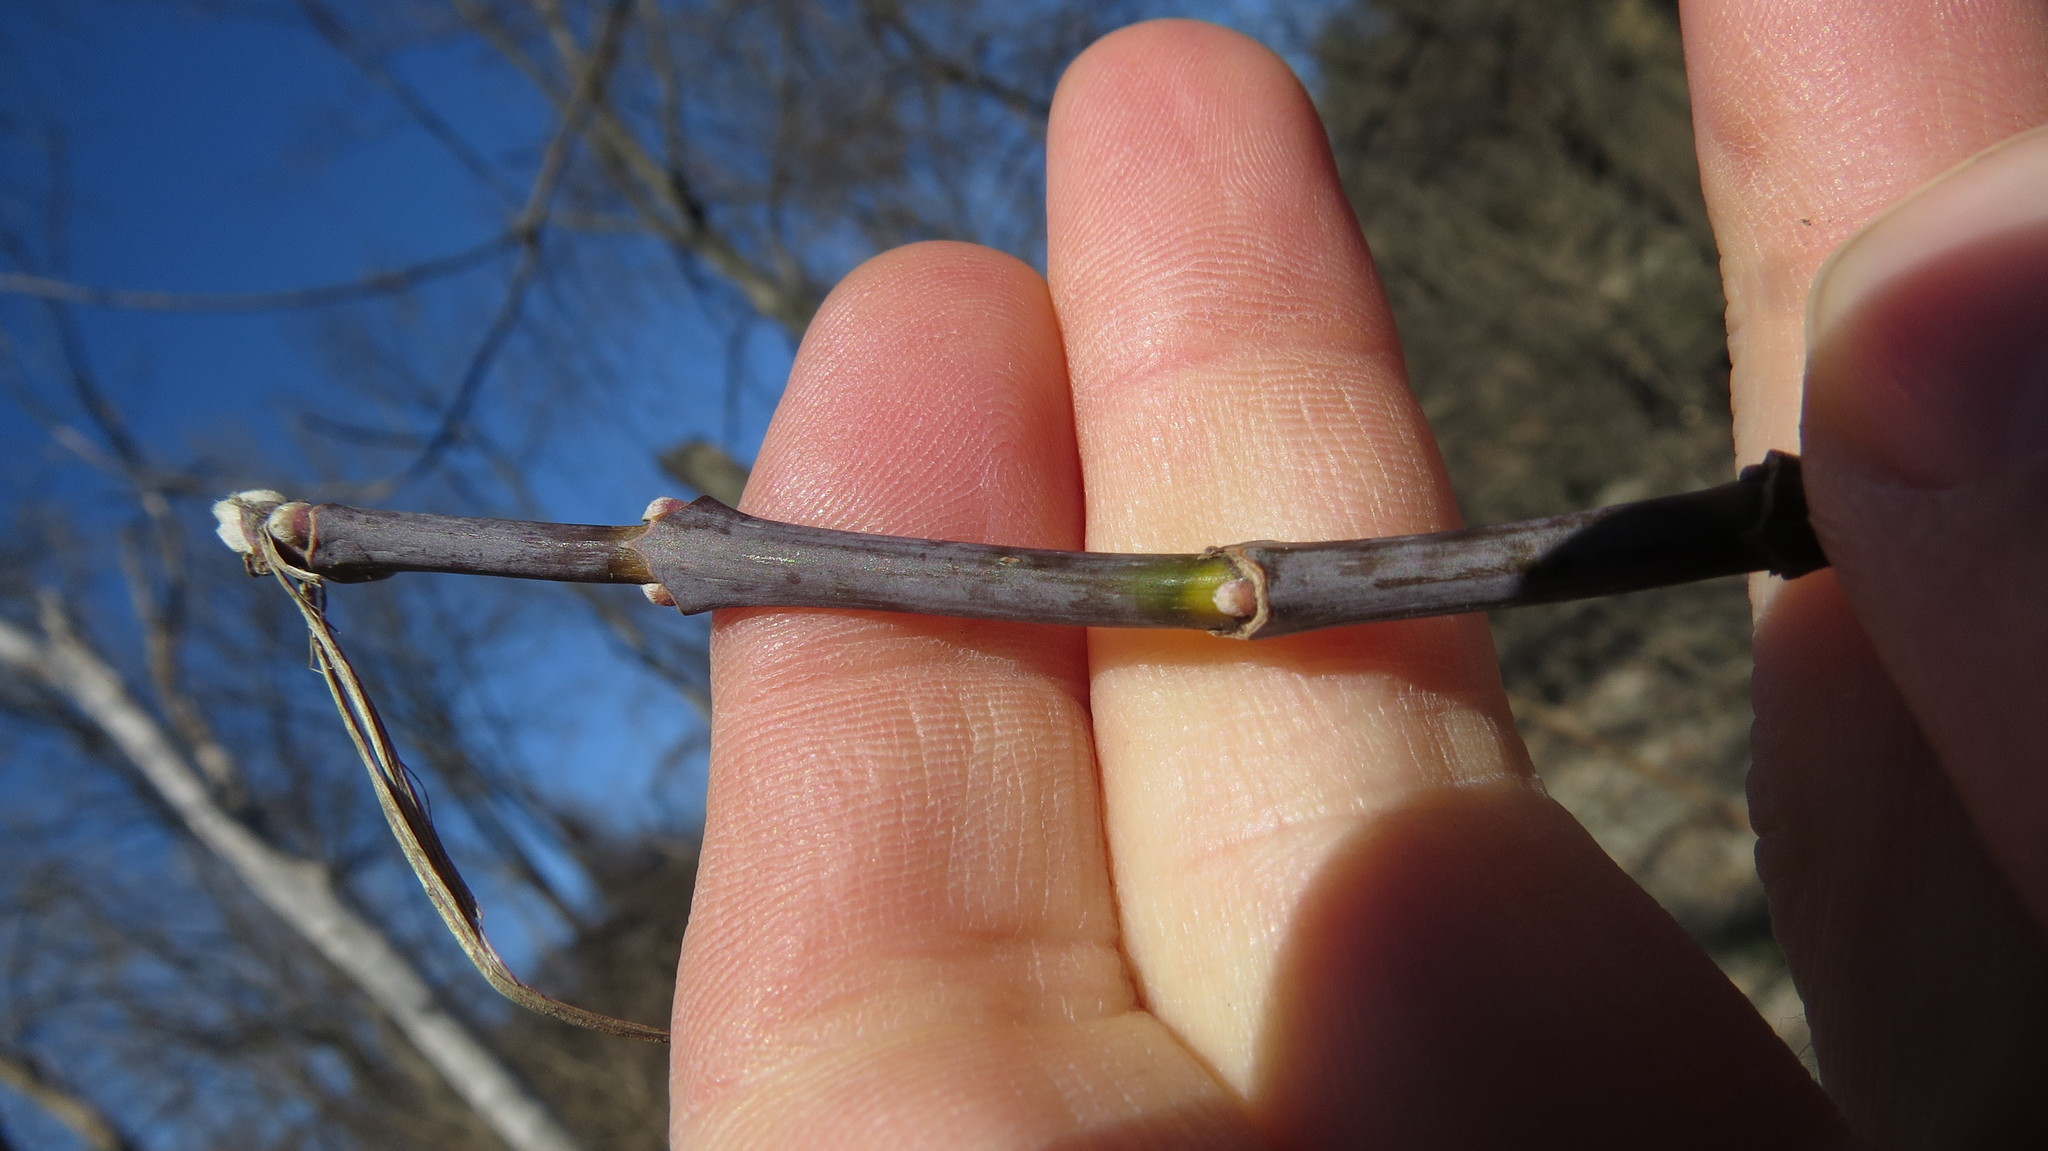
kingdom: Plantae
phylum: Tracheophyta
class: Magnoliopsida
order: Sapindales
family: Sapindaceae
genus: Acer
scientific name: Acer negundo
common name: Ashleaf maple
